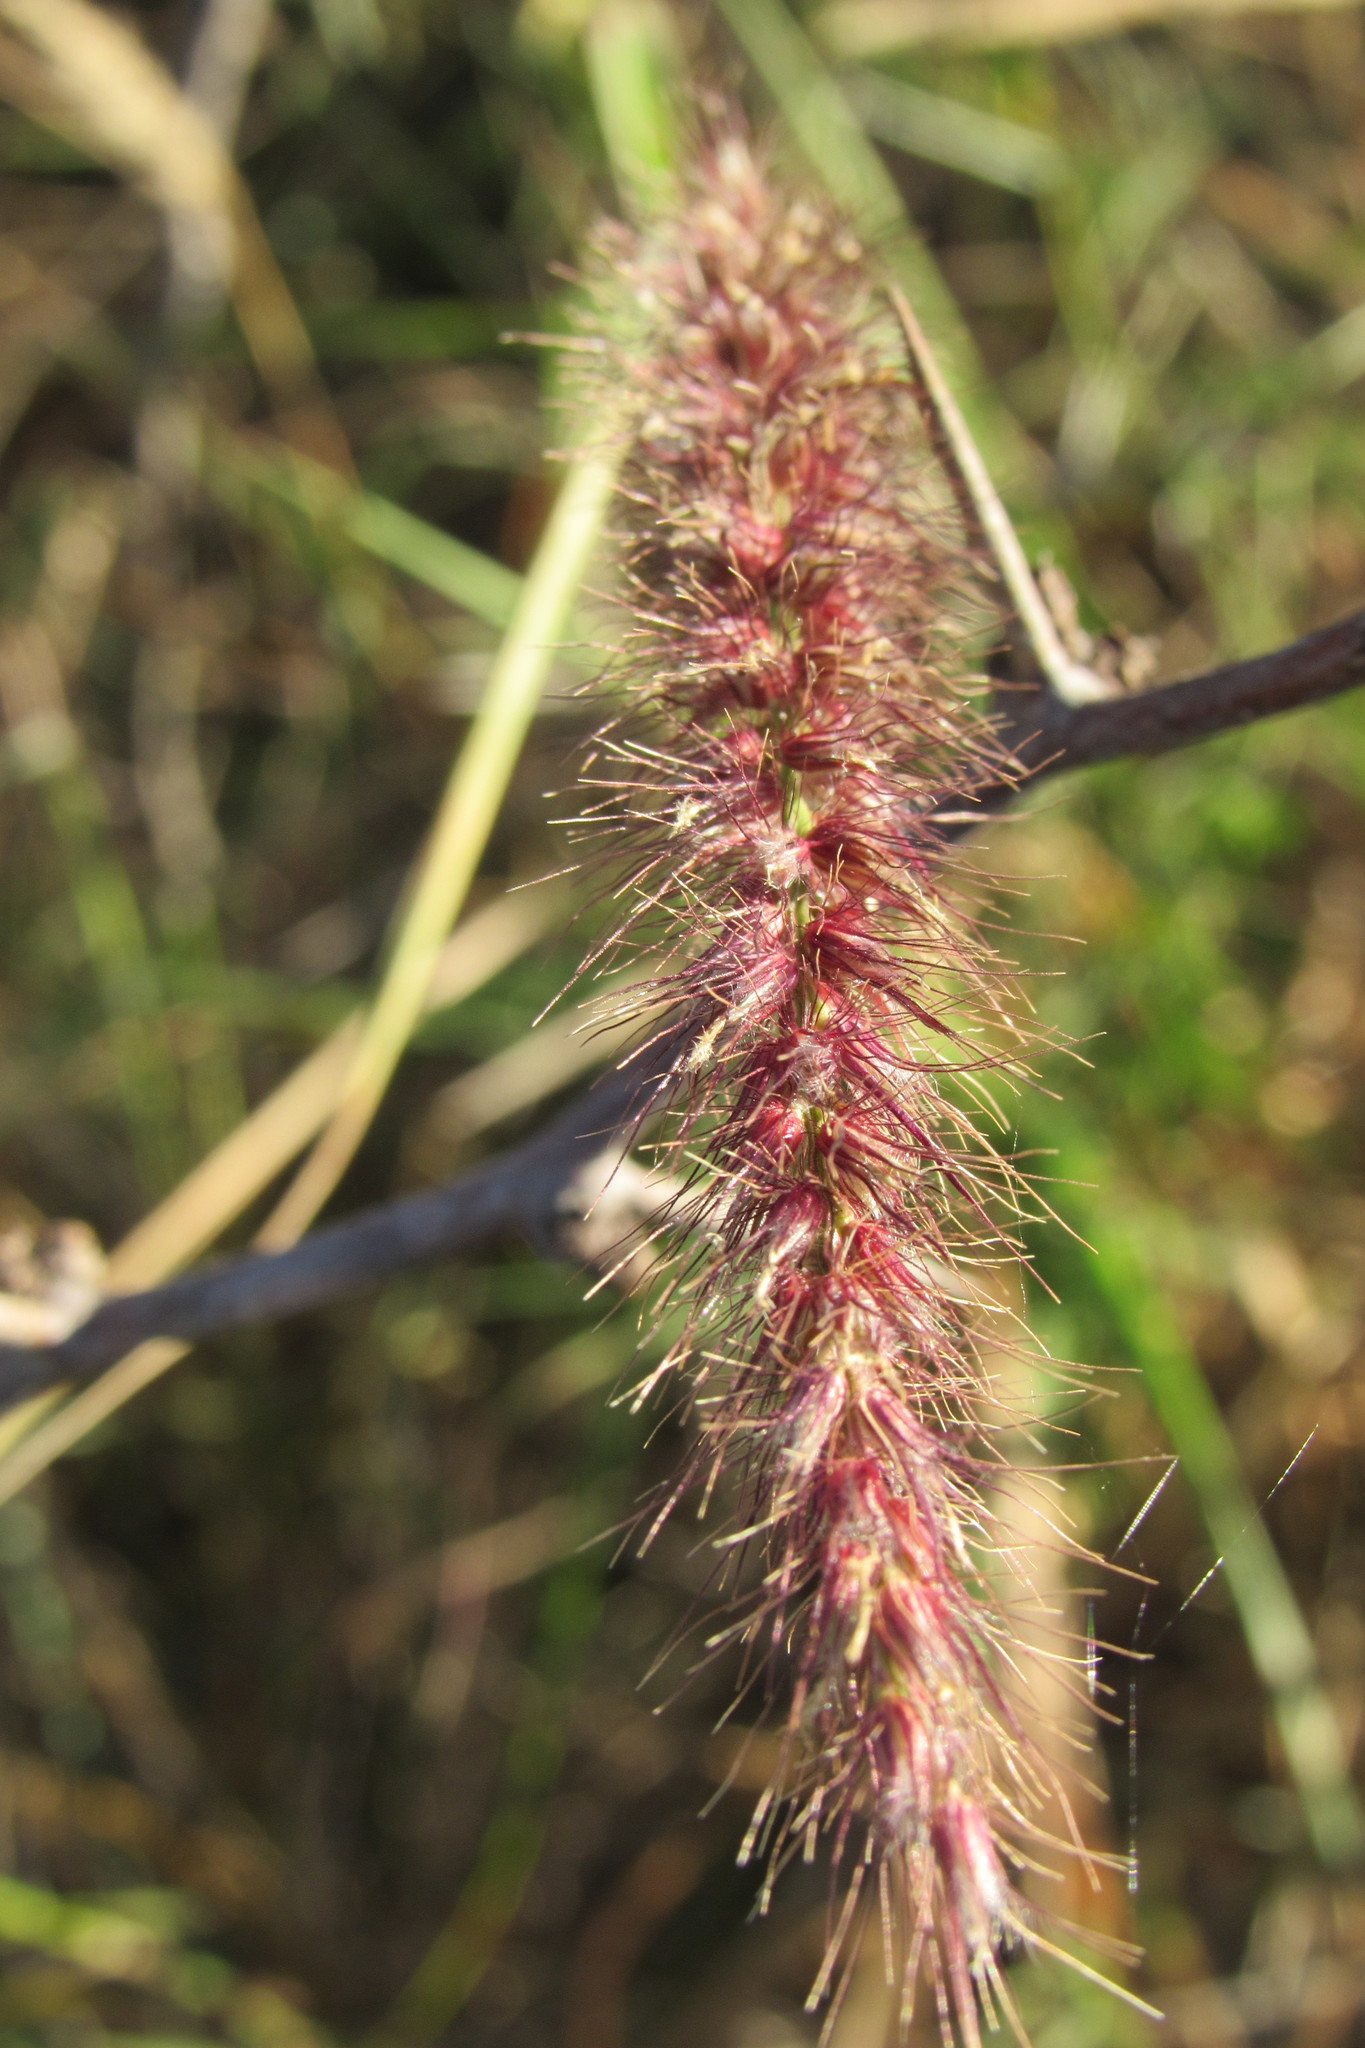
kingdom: Plantae
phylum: Tracheophyta
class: Liliopsida
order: Poales
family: Poaceae
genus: Cenchrus
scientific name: Cenchrus ciliaris
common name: Buffelgrass
